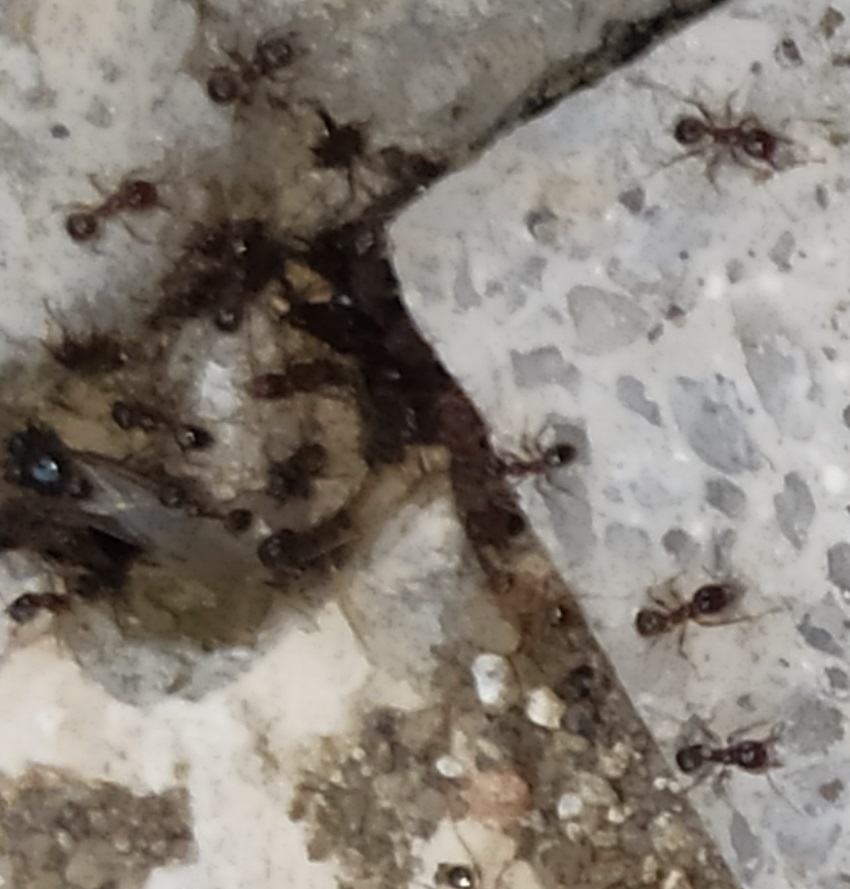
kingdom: Animalia
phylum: Arthropoda
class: Insecta
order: Hymenoptera
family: Formicidae
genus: Pheidole
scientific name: Pheidole pallidula
